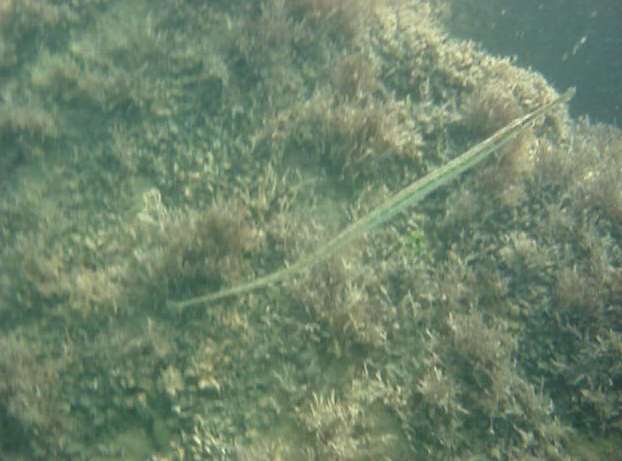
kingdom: Animalia
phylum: Chordata
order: Syngnathiformes
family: Syngnathidae
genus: Syngnathus
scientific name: Syngnathus
